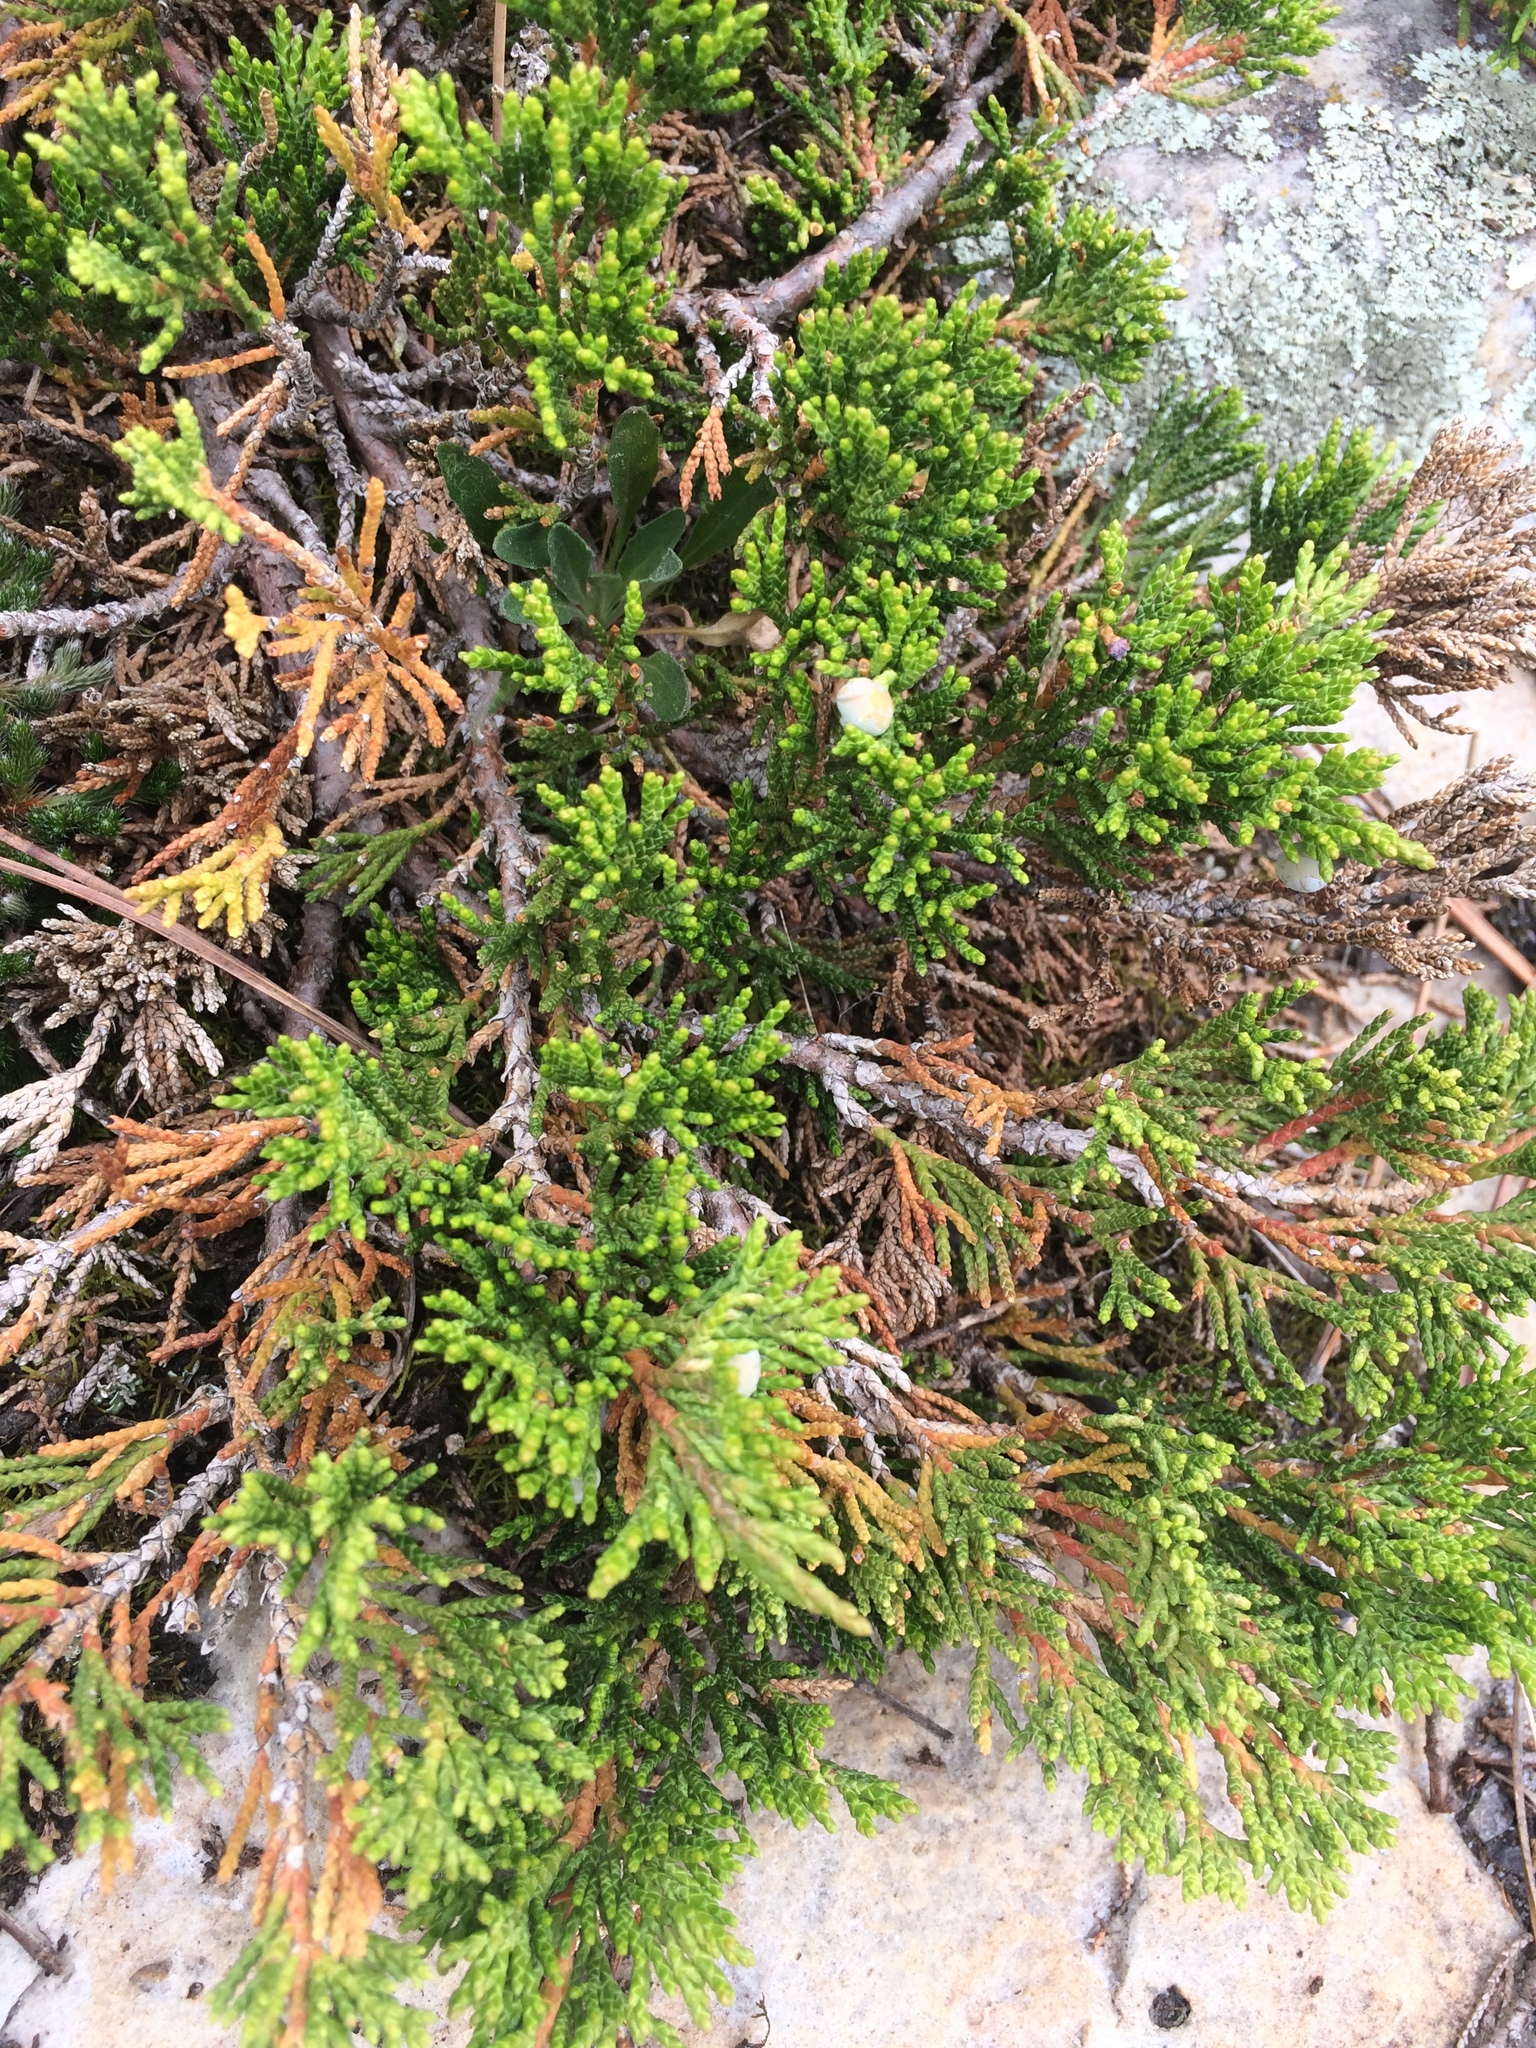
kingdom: Plantae
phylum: Tracheophyta
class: Pinopsida
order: Pinales
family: Cupressaceae
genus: Juniperus
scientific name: Juniperus horizontalis
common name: Creeping juniper
